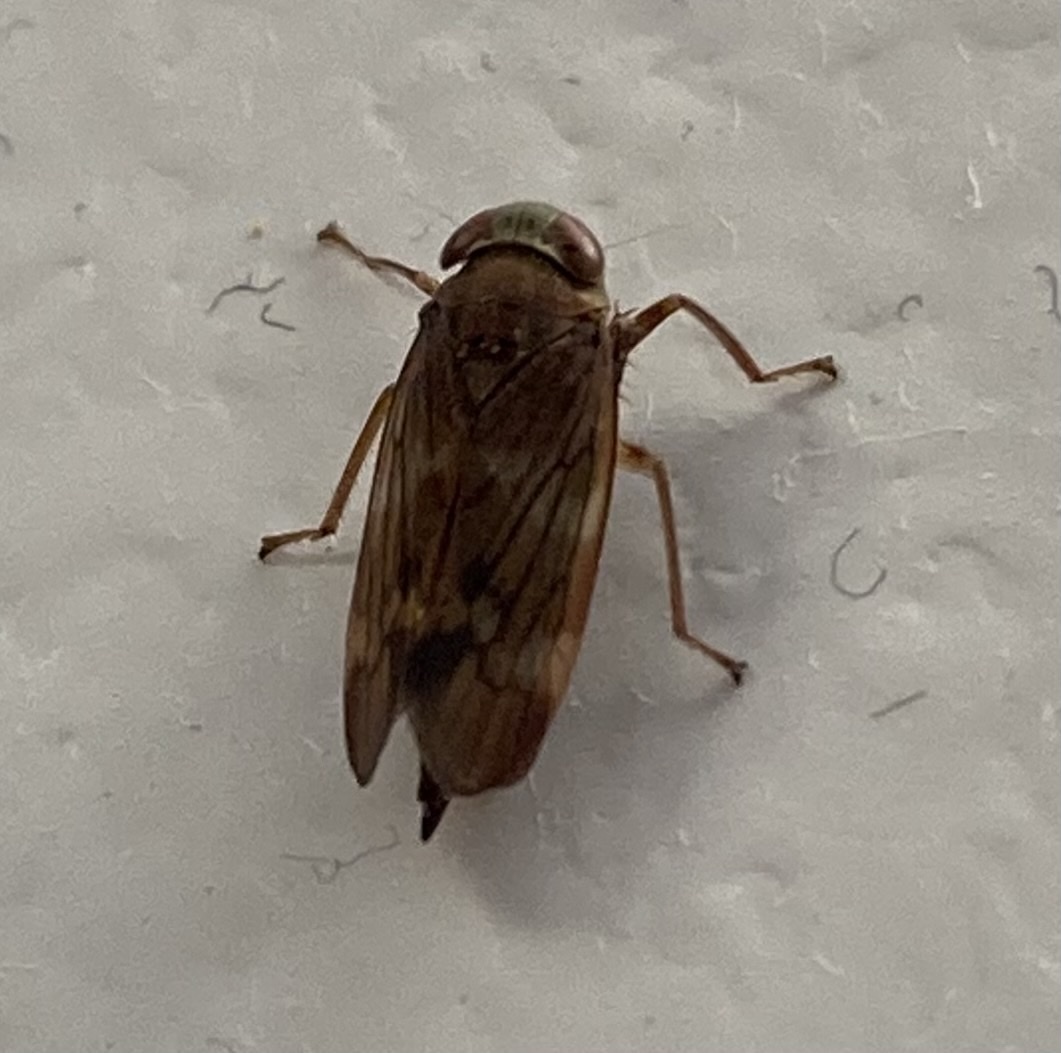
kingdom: Animalia
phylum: Arthropoda
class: Insecta
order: Hemiptera
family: Cicadellidae
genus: Jikradia
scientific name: Jikradia olitoria
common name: Coppery leafhopper
